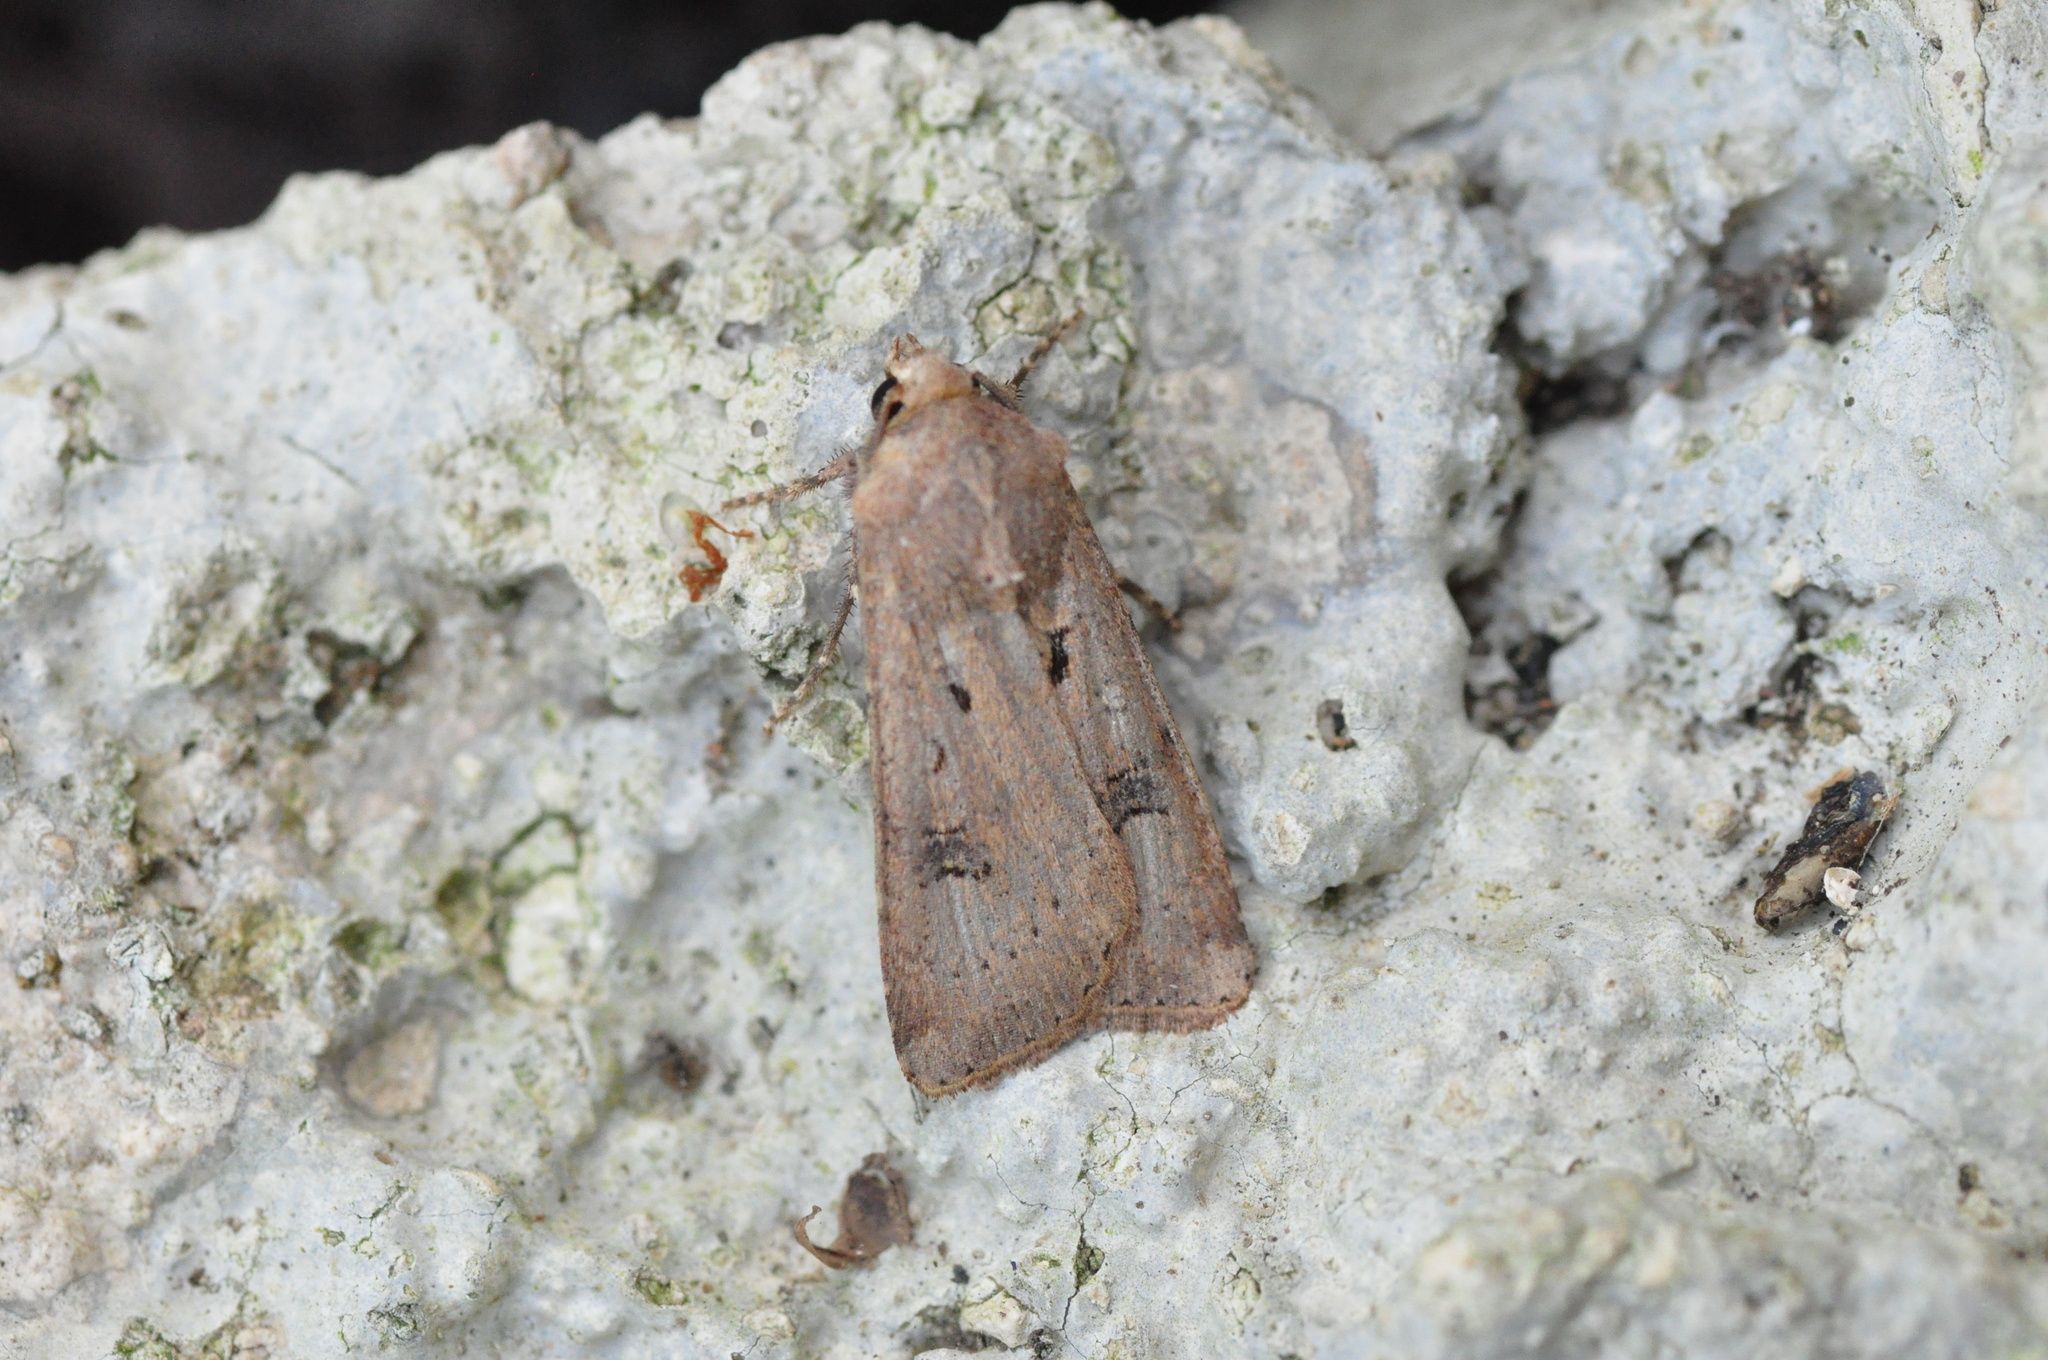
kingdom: Animalia
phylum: Arthropoda
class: Insecta
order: Lepidoptera
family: Noctuidae
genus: Agrotis
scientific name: Agrotis trux
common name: Crescent dart
